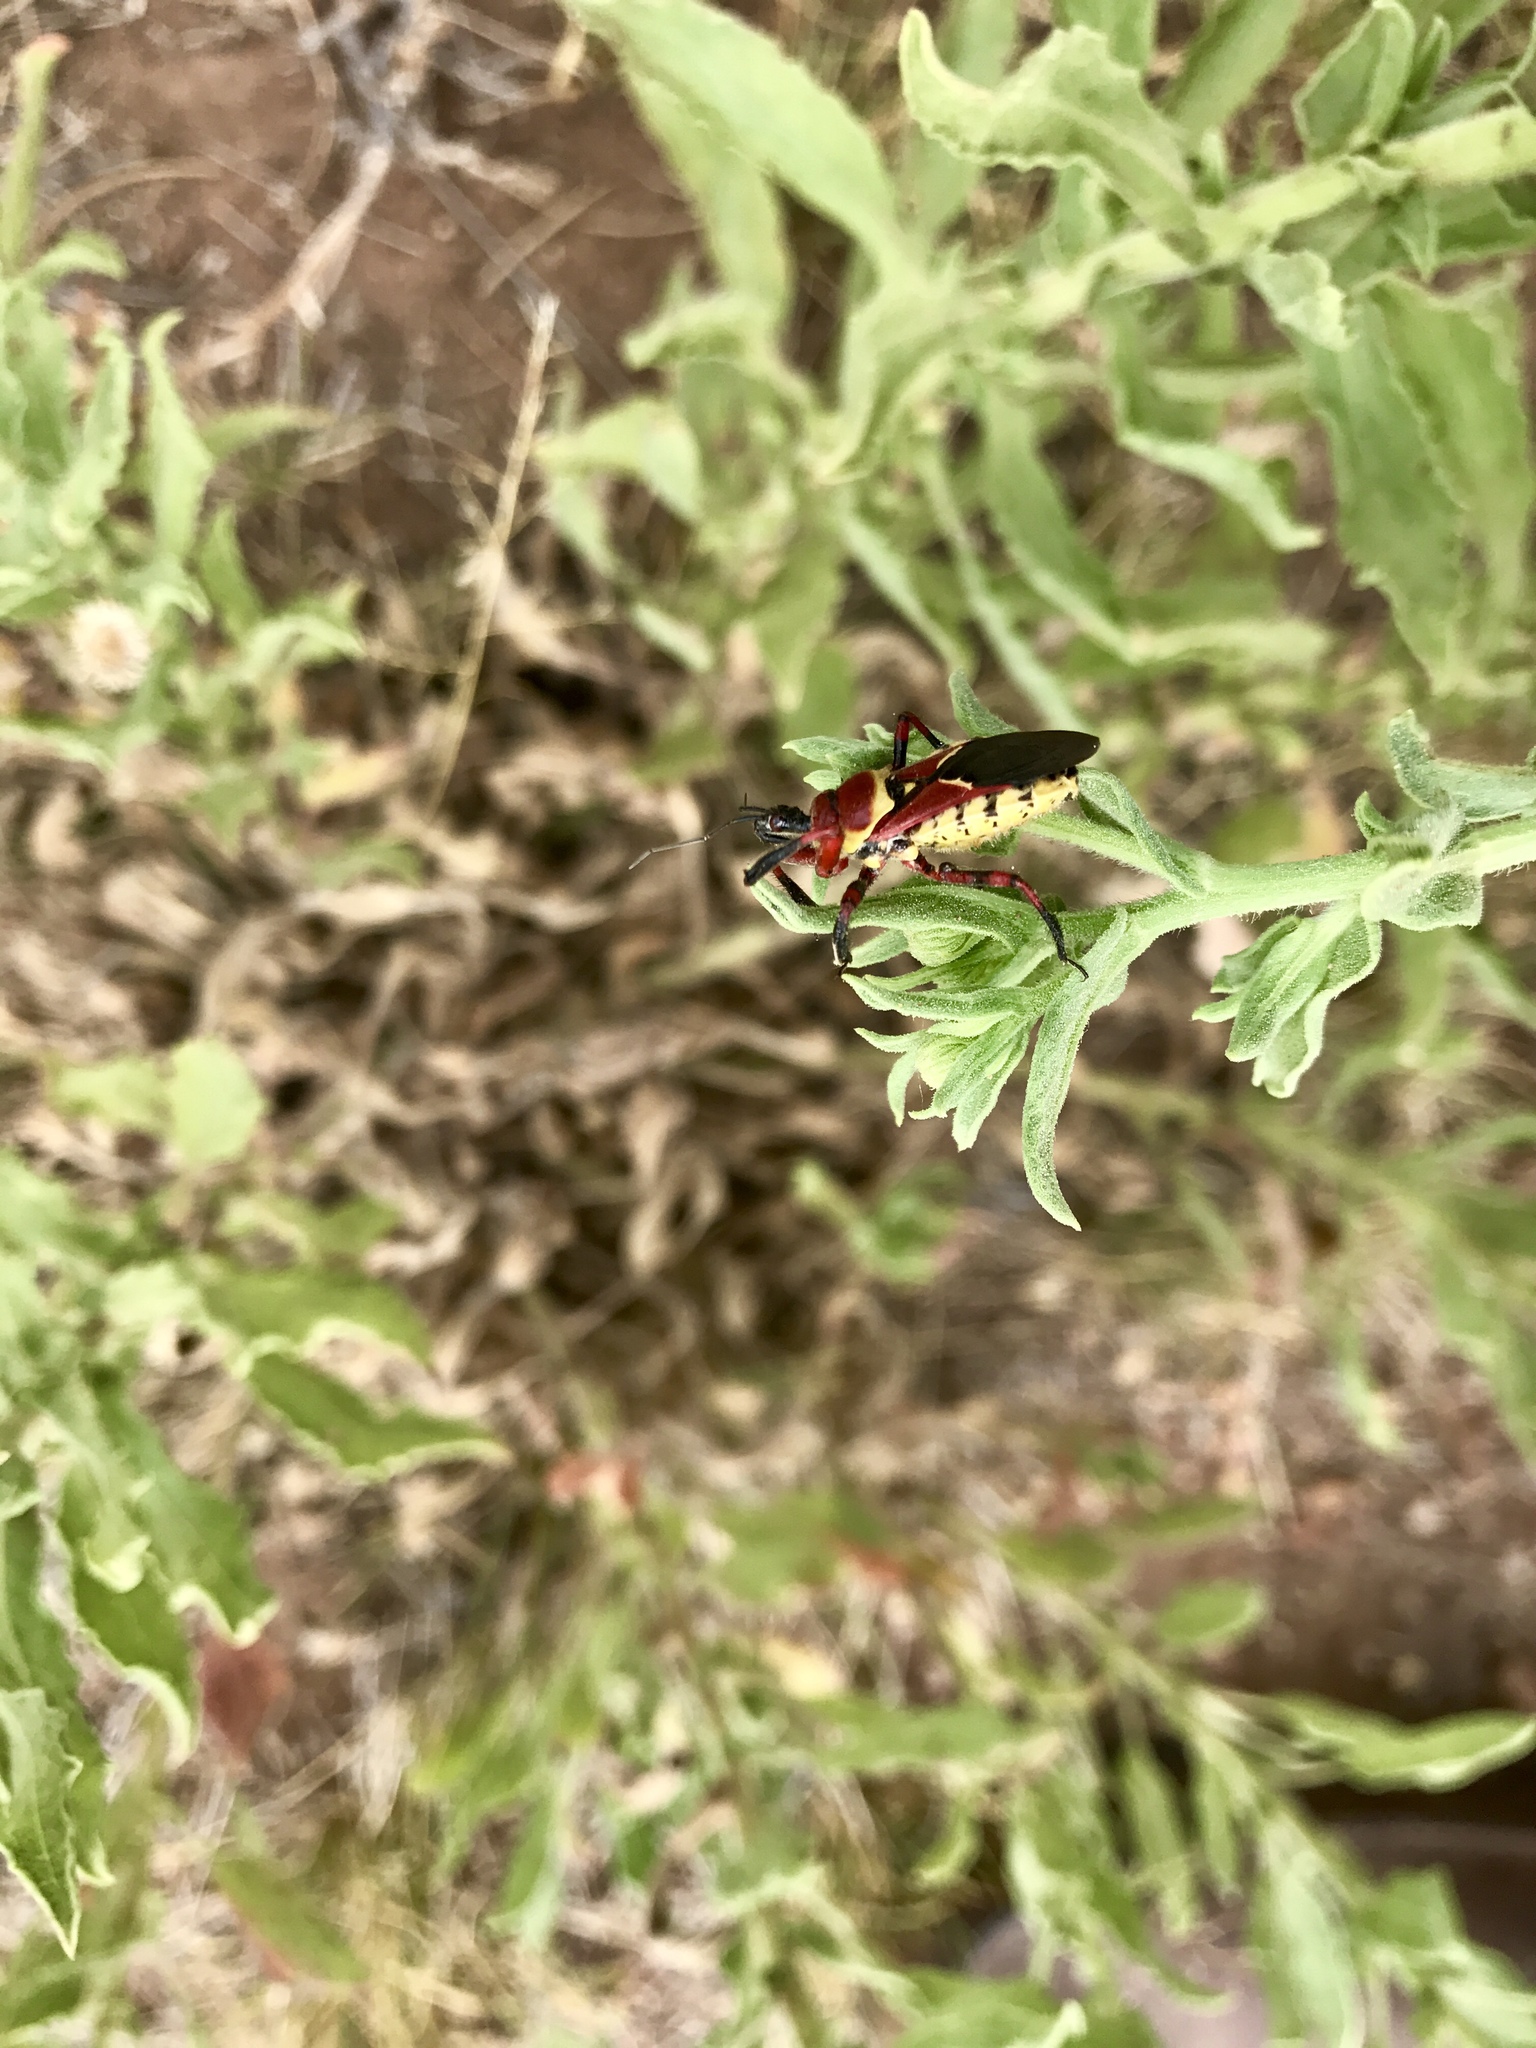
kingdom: Animalia
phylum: Arthropoda
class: Insecta
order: Hemiptera
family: Reduviidae
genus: Apiomerus
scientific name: Apiomerus flaviventris
